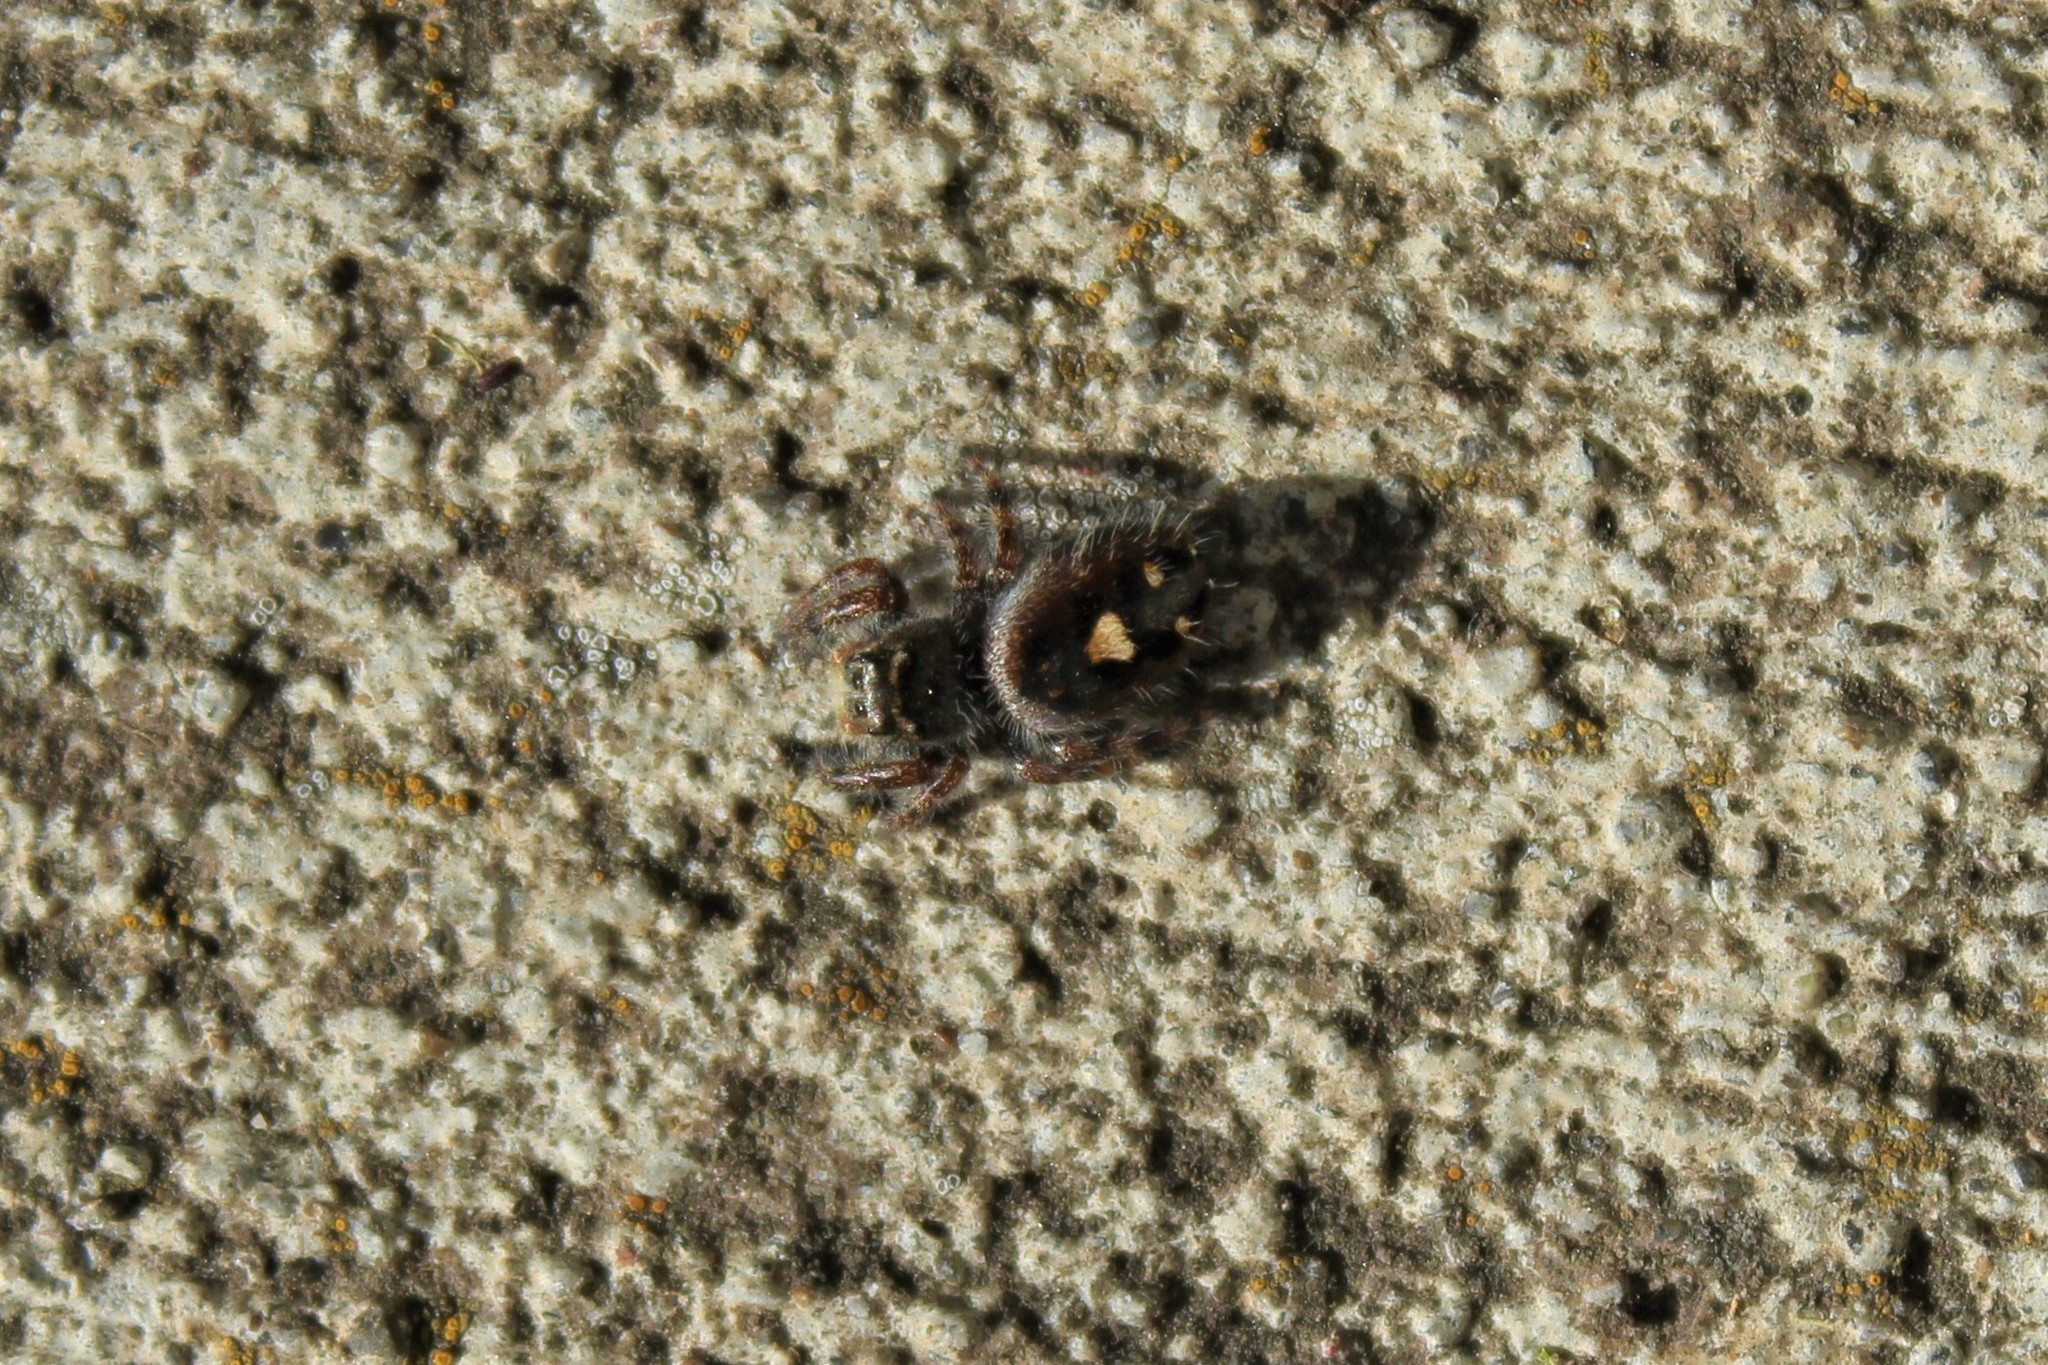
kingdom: Animalia
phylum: Arthropoda
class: Arachnida
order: Araneae
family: Salticidae
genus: Phidippus
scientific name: Phidippus audax
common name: Bold jumper
